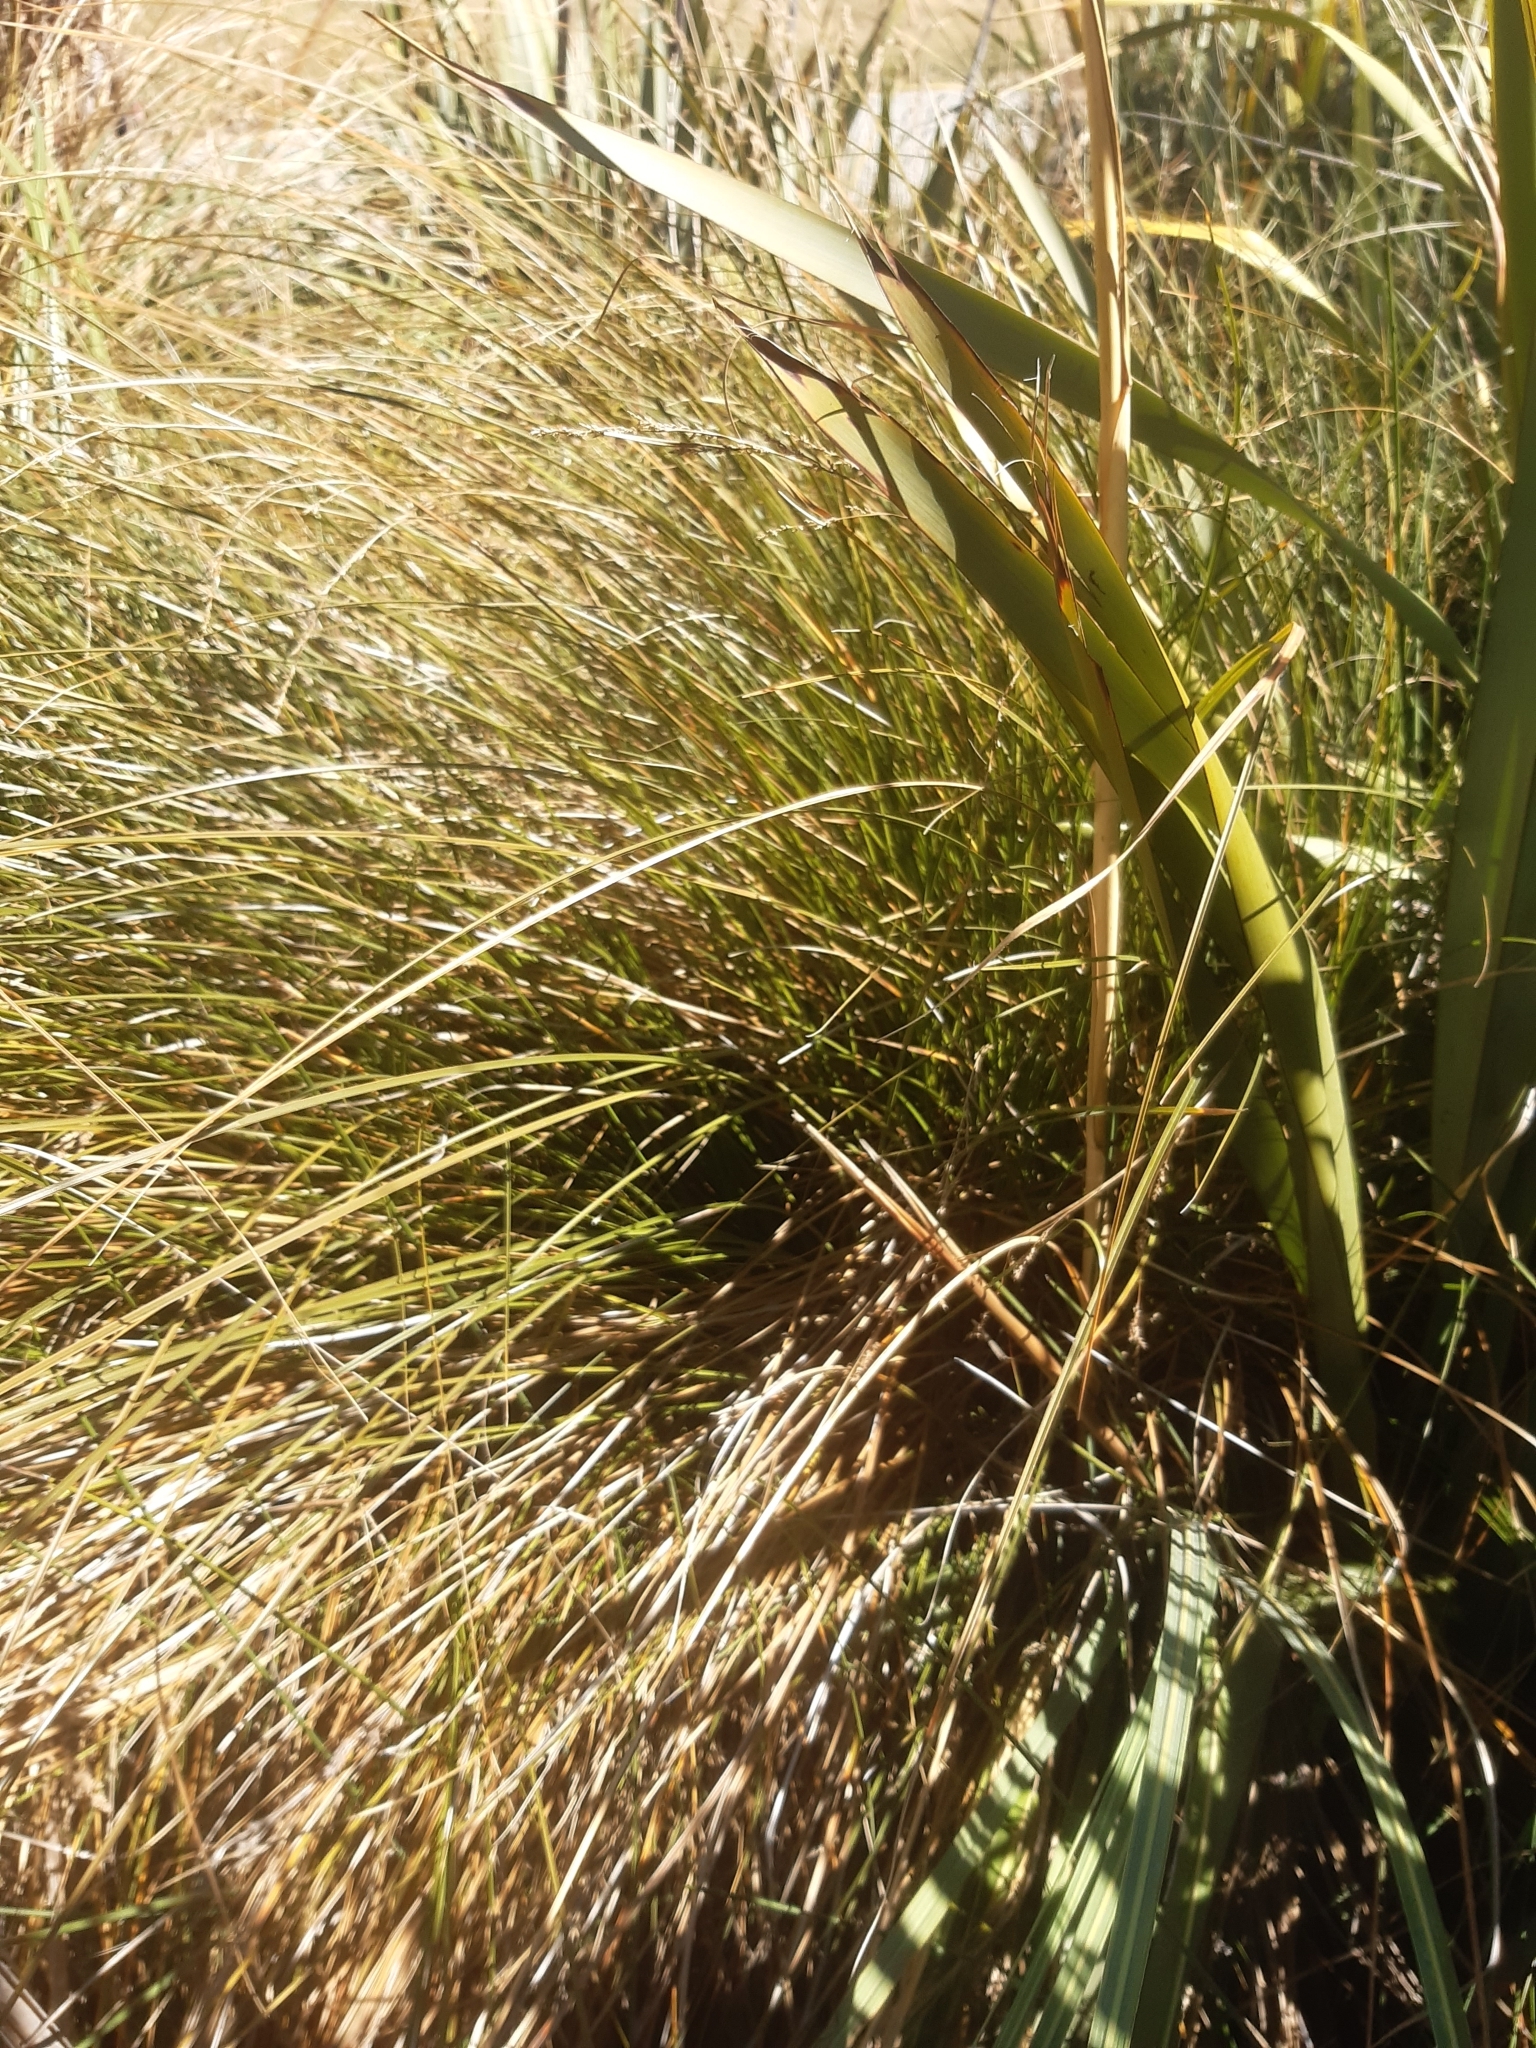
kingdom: Plantae
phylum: Tracheophyta
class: Liliopsida
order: Poales
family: Cyperaceae
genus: Carex
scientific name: Carex secta
